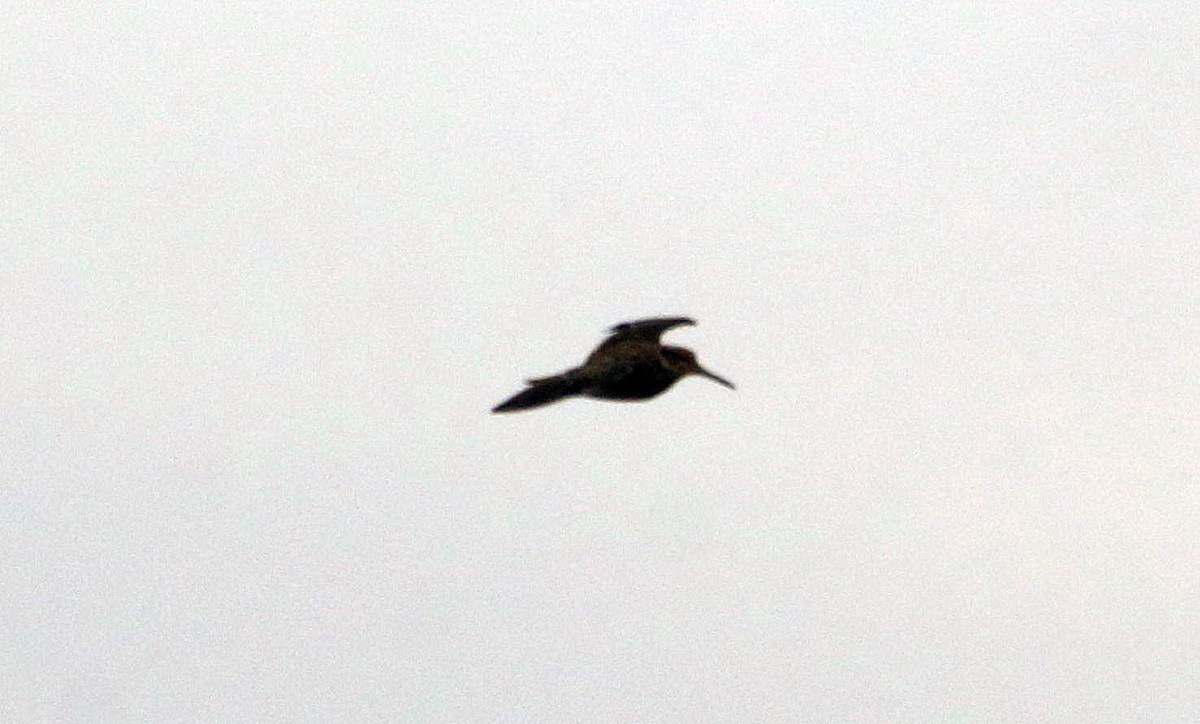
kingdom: Animalia
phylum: Chordata
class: Aves
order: Charadriiformes
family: Scolopacidae
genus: Lymnocryptes
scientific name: Lymnocryptes minimus
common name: Jack snipe
